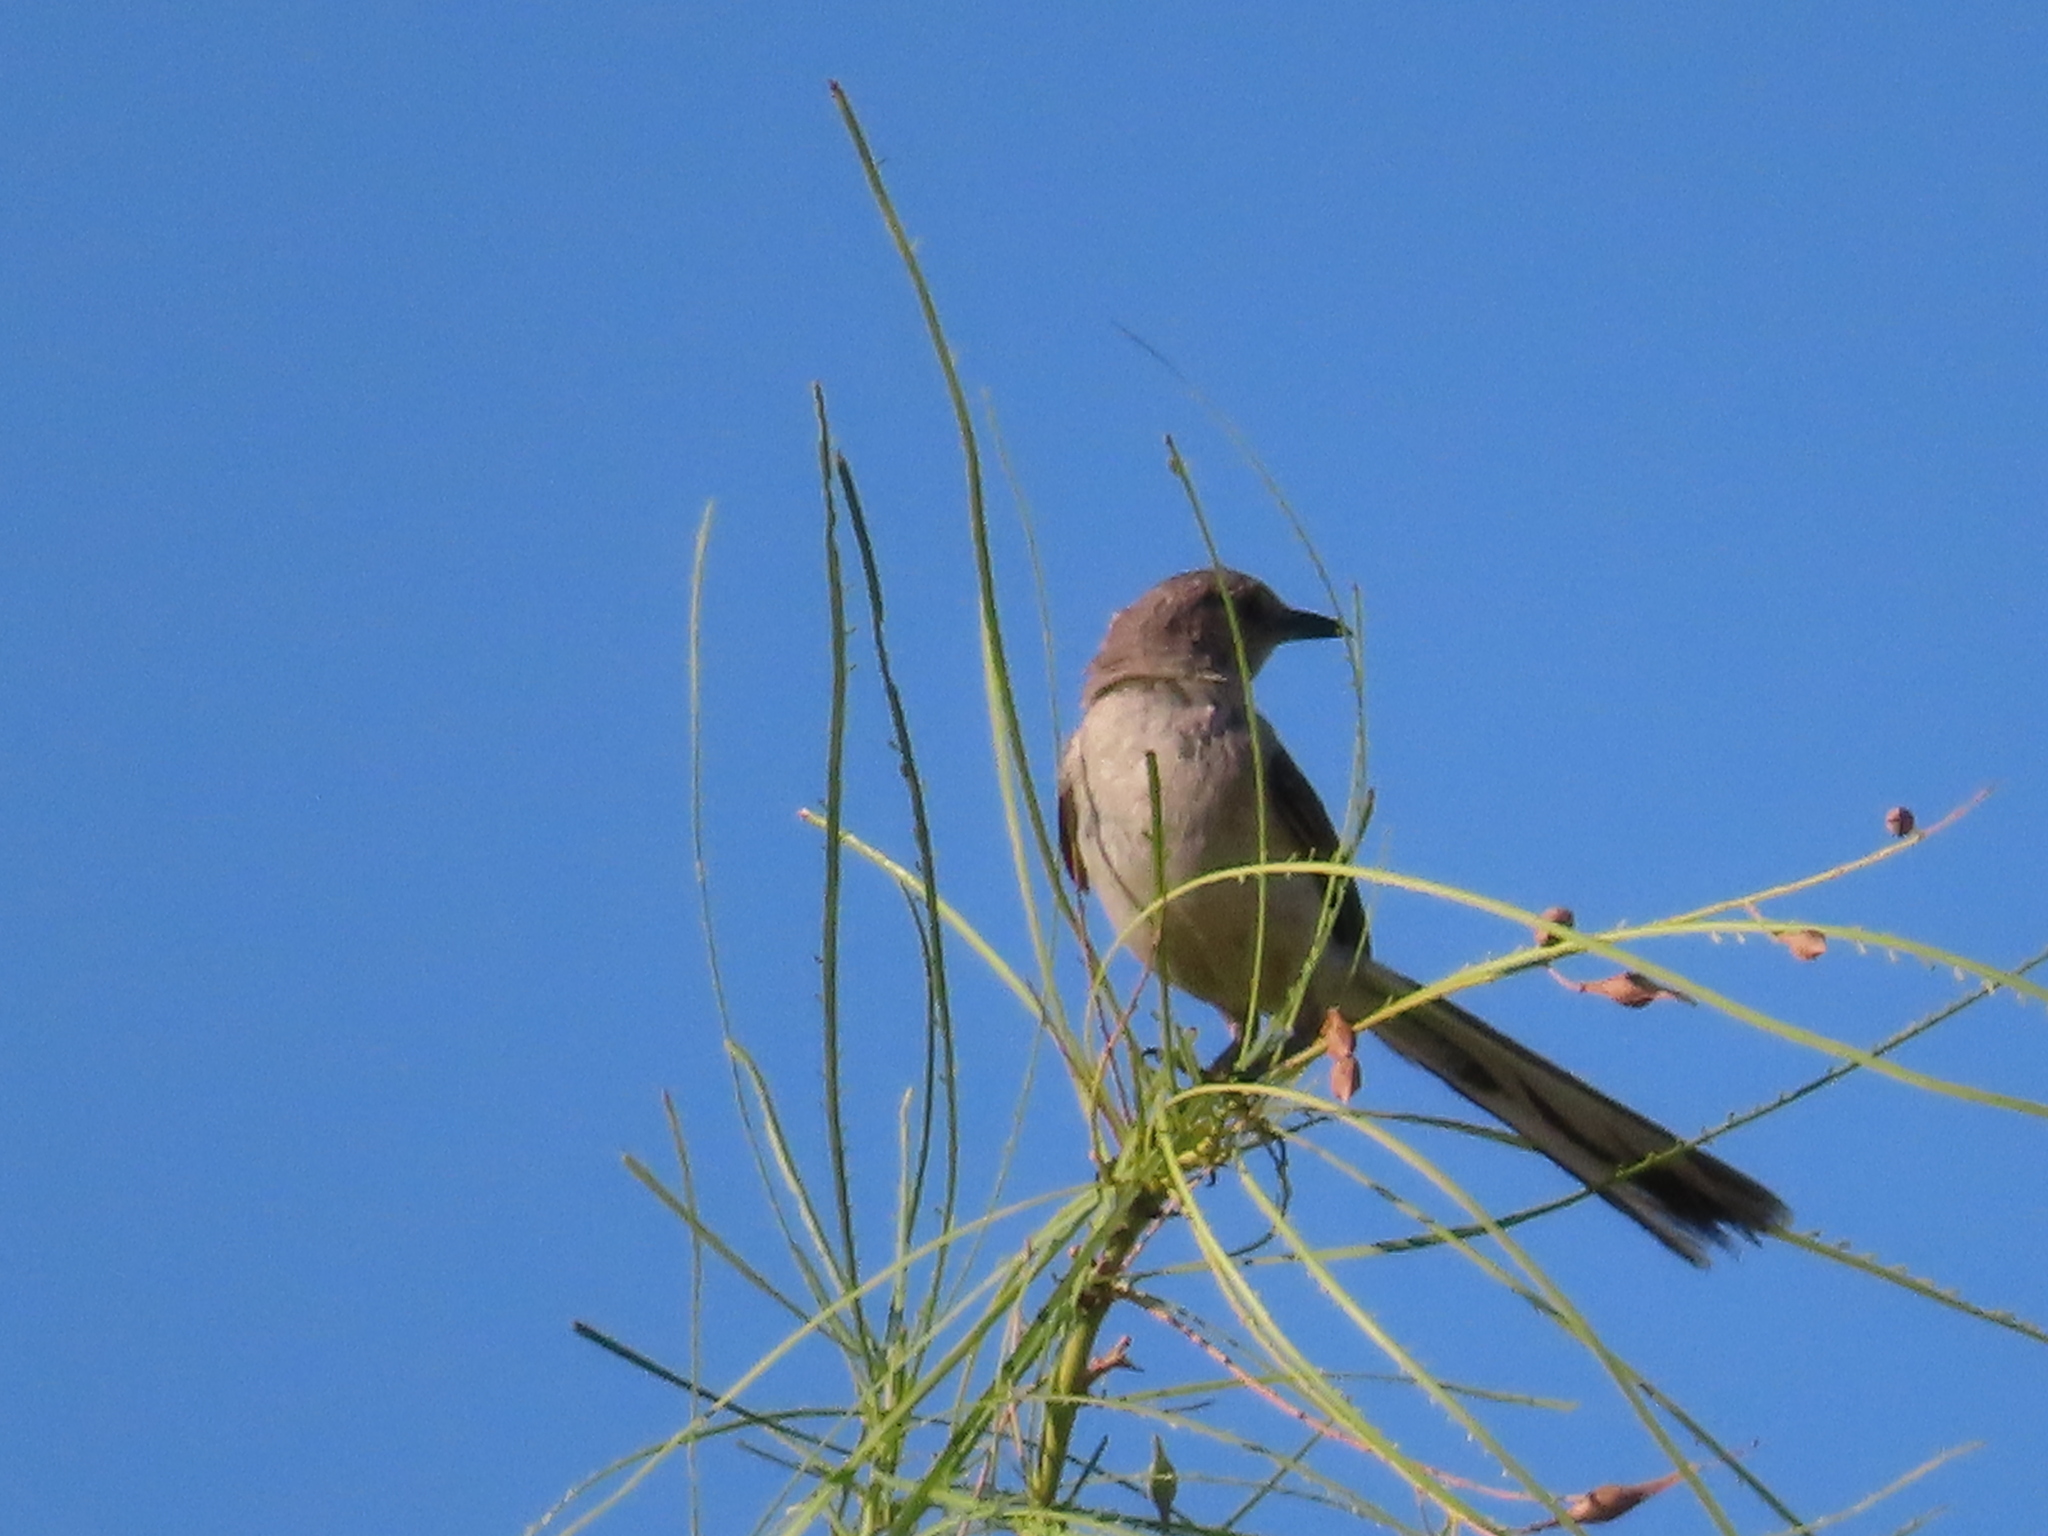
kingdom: Animalia
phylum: Chordata
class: Aves
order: Passeriformes
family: Mimidae
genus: Mimus
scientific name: Mimus polyglottos
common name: Northern mockingbird
